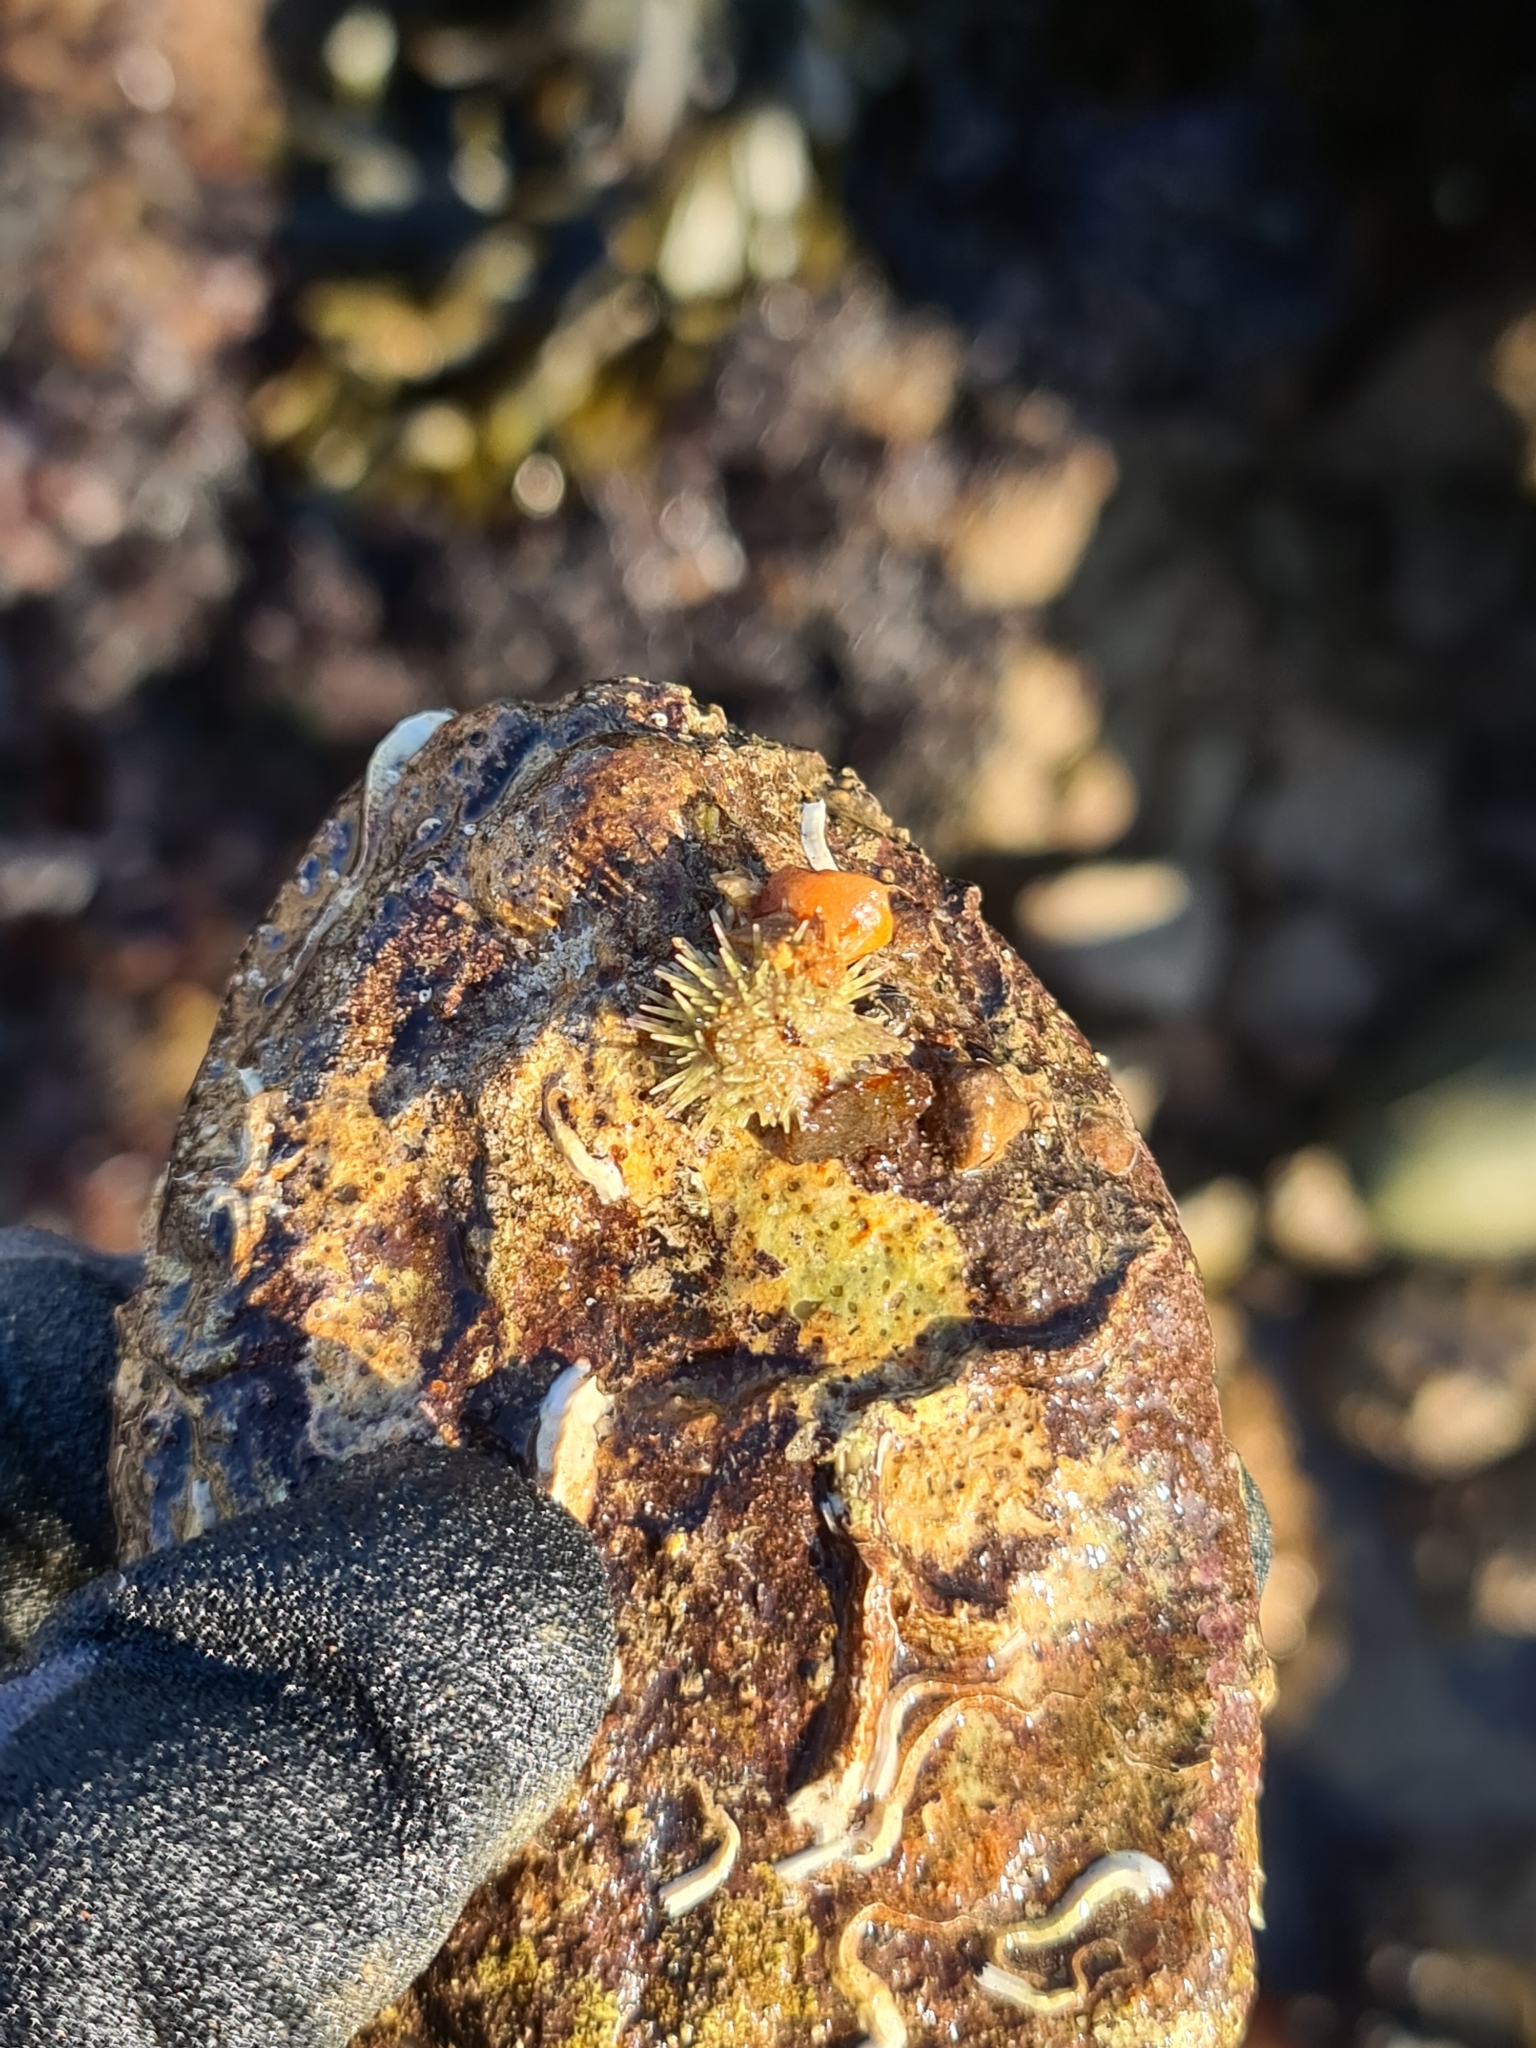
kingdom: Animalia
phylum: Echinodermata
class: Echinoidea
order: Camarodonta
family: Parechinidae
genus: Psammechinus
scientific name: Psammechinus miliaris
